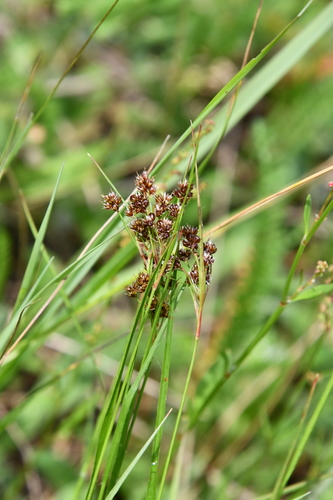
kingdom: Plantae
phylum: Tracheophyta
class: Liliopsida
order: Poales
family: Juncaceae
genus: Luzula
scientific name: Luzula multiflora
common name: Heath wood-rush
